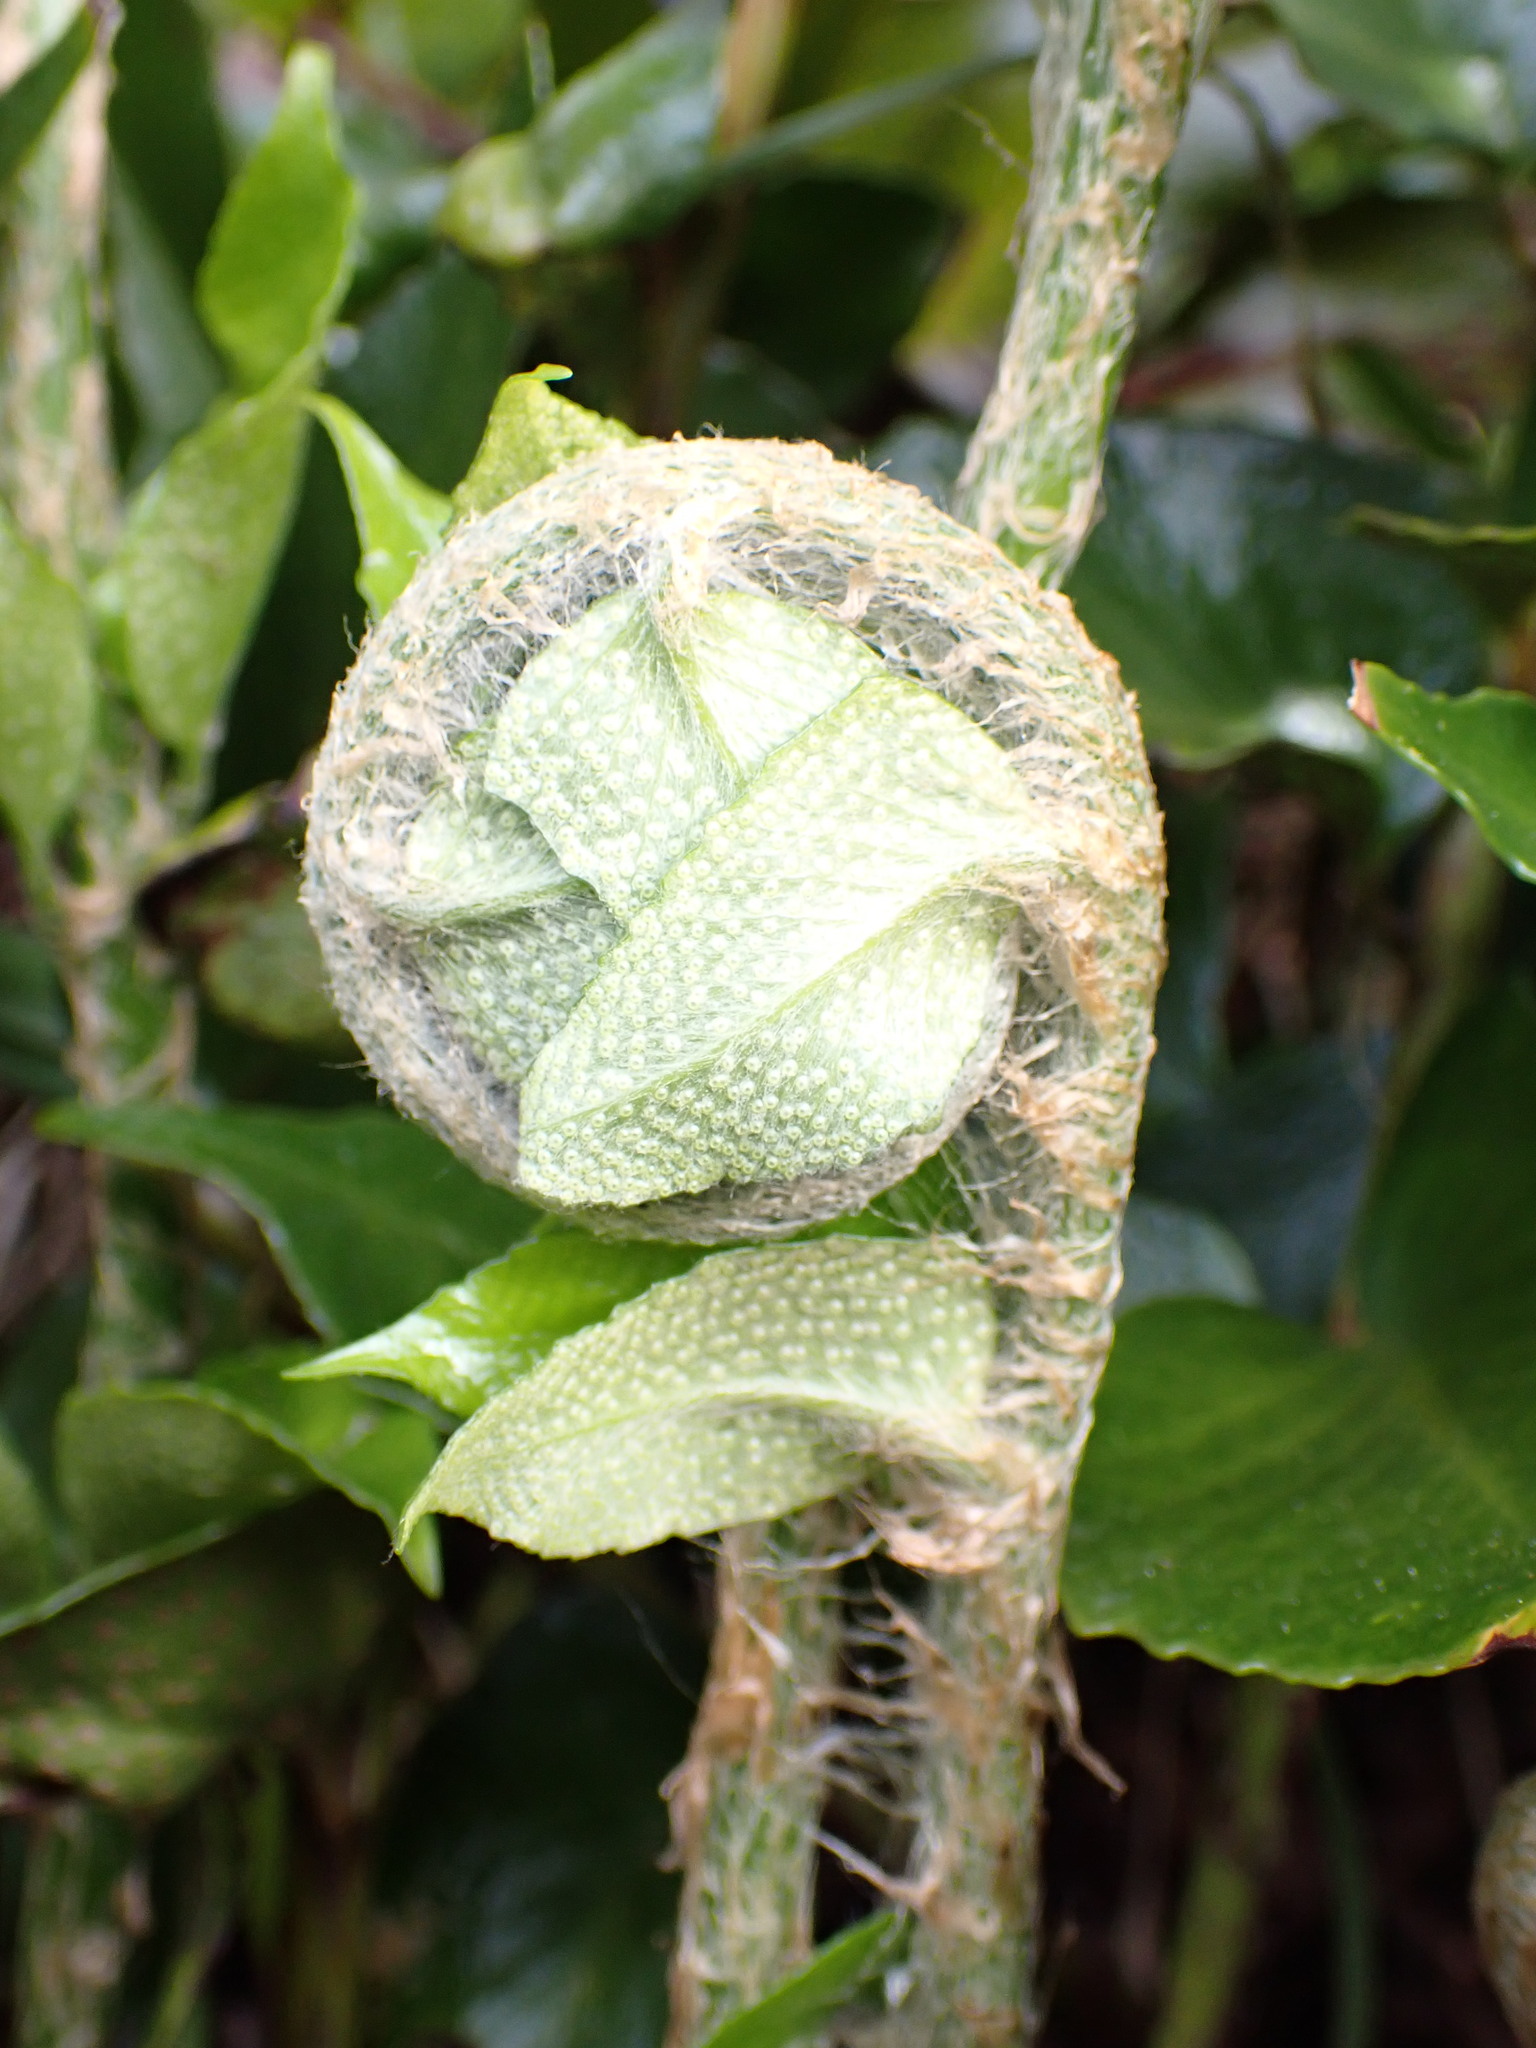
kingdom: Plantae
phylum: Tracheophyta
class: Polypodiopsida
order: Polypodiales
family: Dryopteridaceae
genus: Cyrtomium
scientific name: Cyrtomium falcatum
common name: House holly-fern
